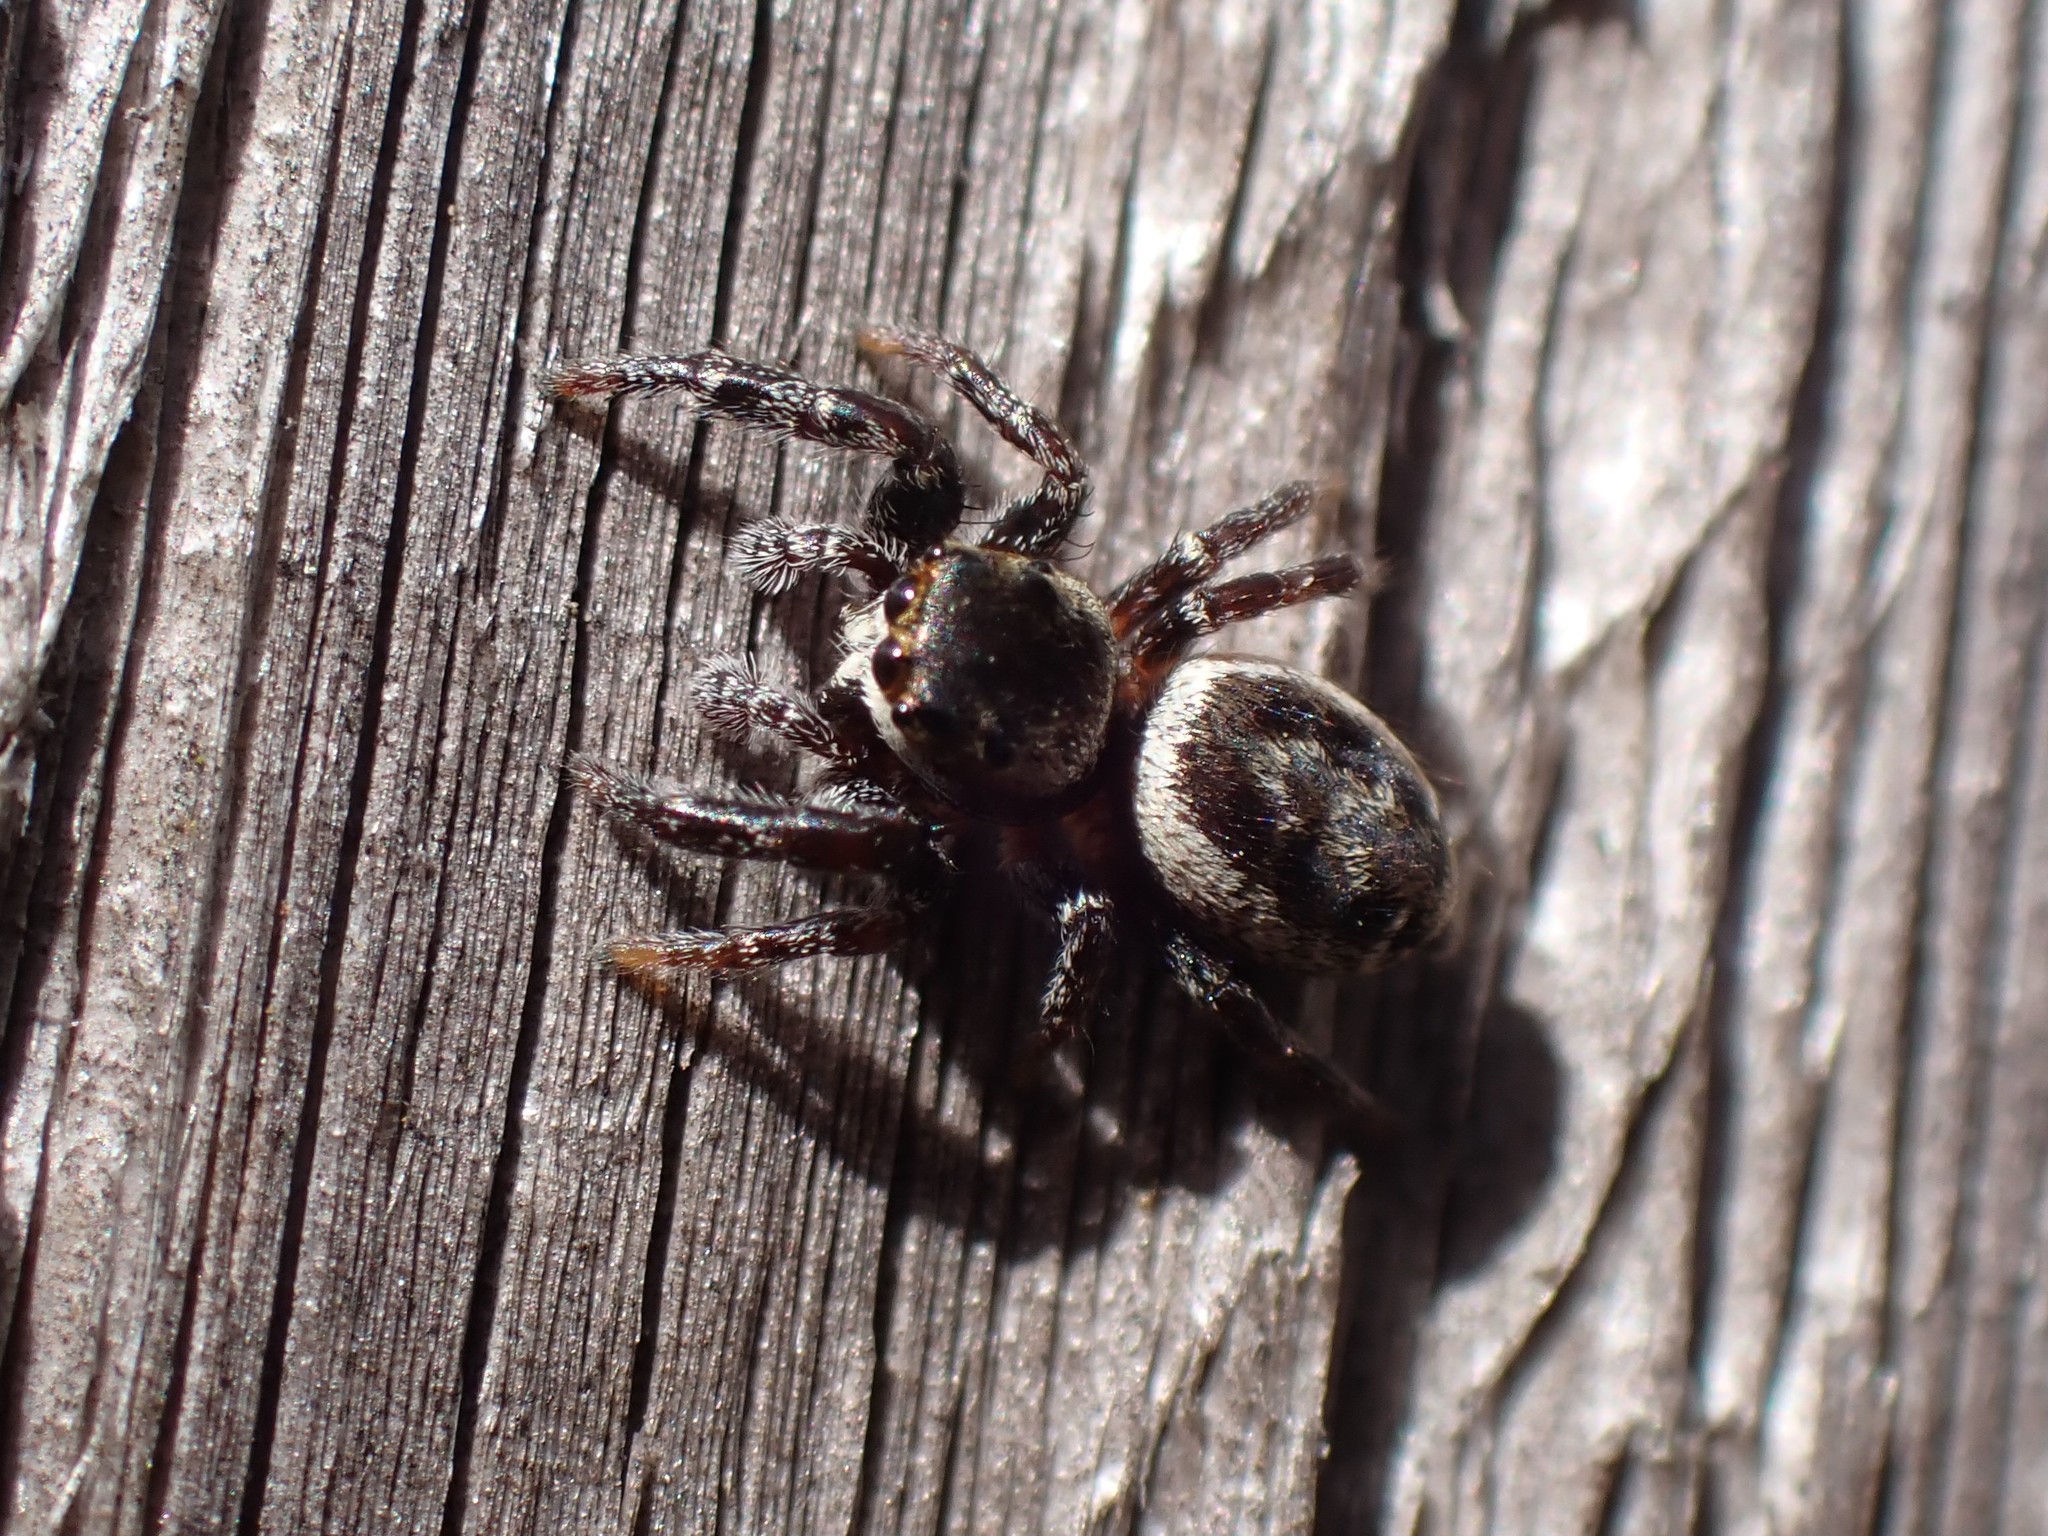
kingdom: Animalia
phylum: Arthropoda
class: Arachnida
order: Araneae
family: Salticidae
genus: Metaphidippus
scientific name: Metaphidippus manni
